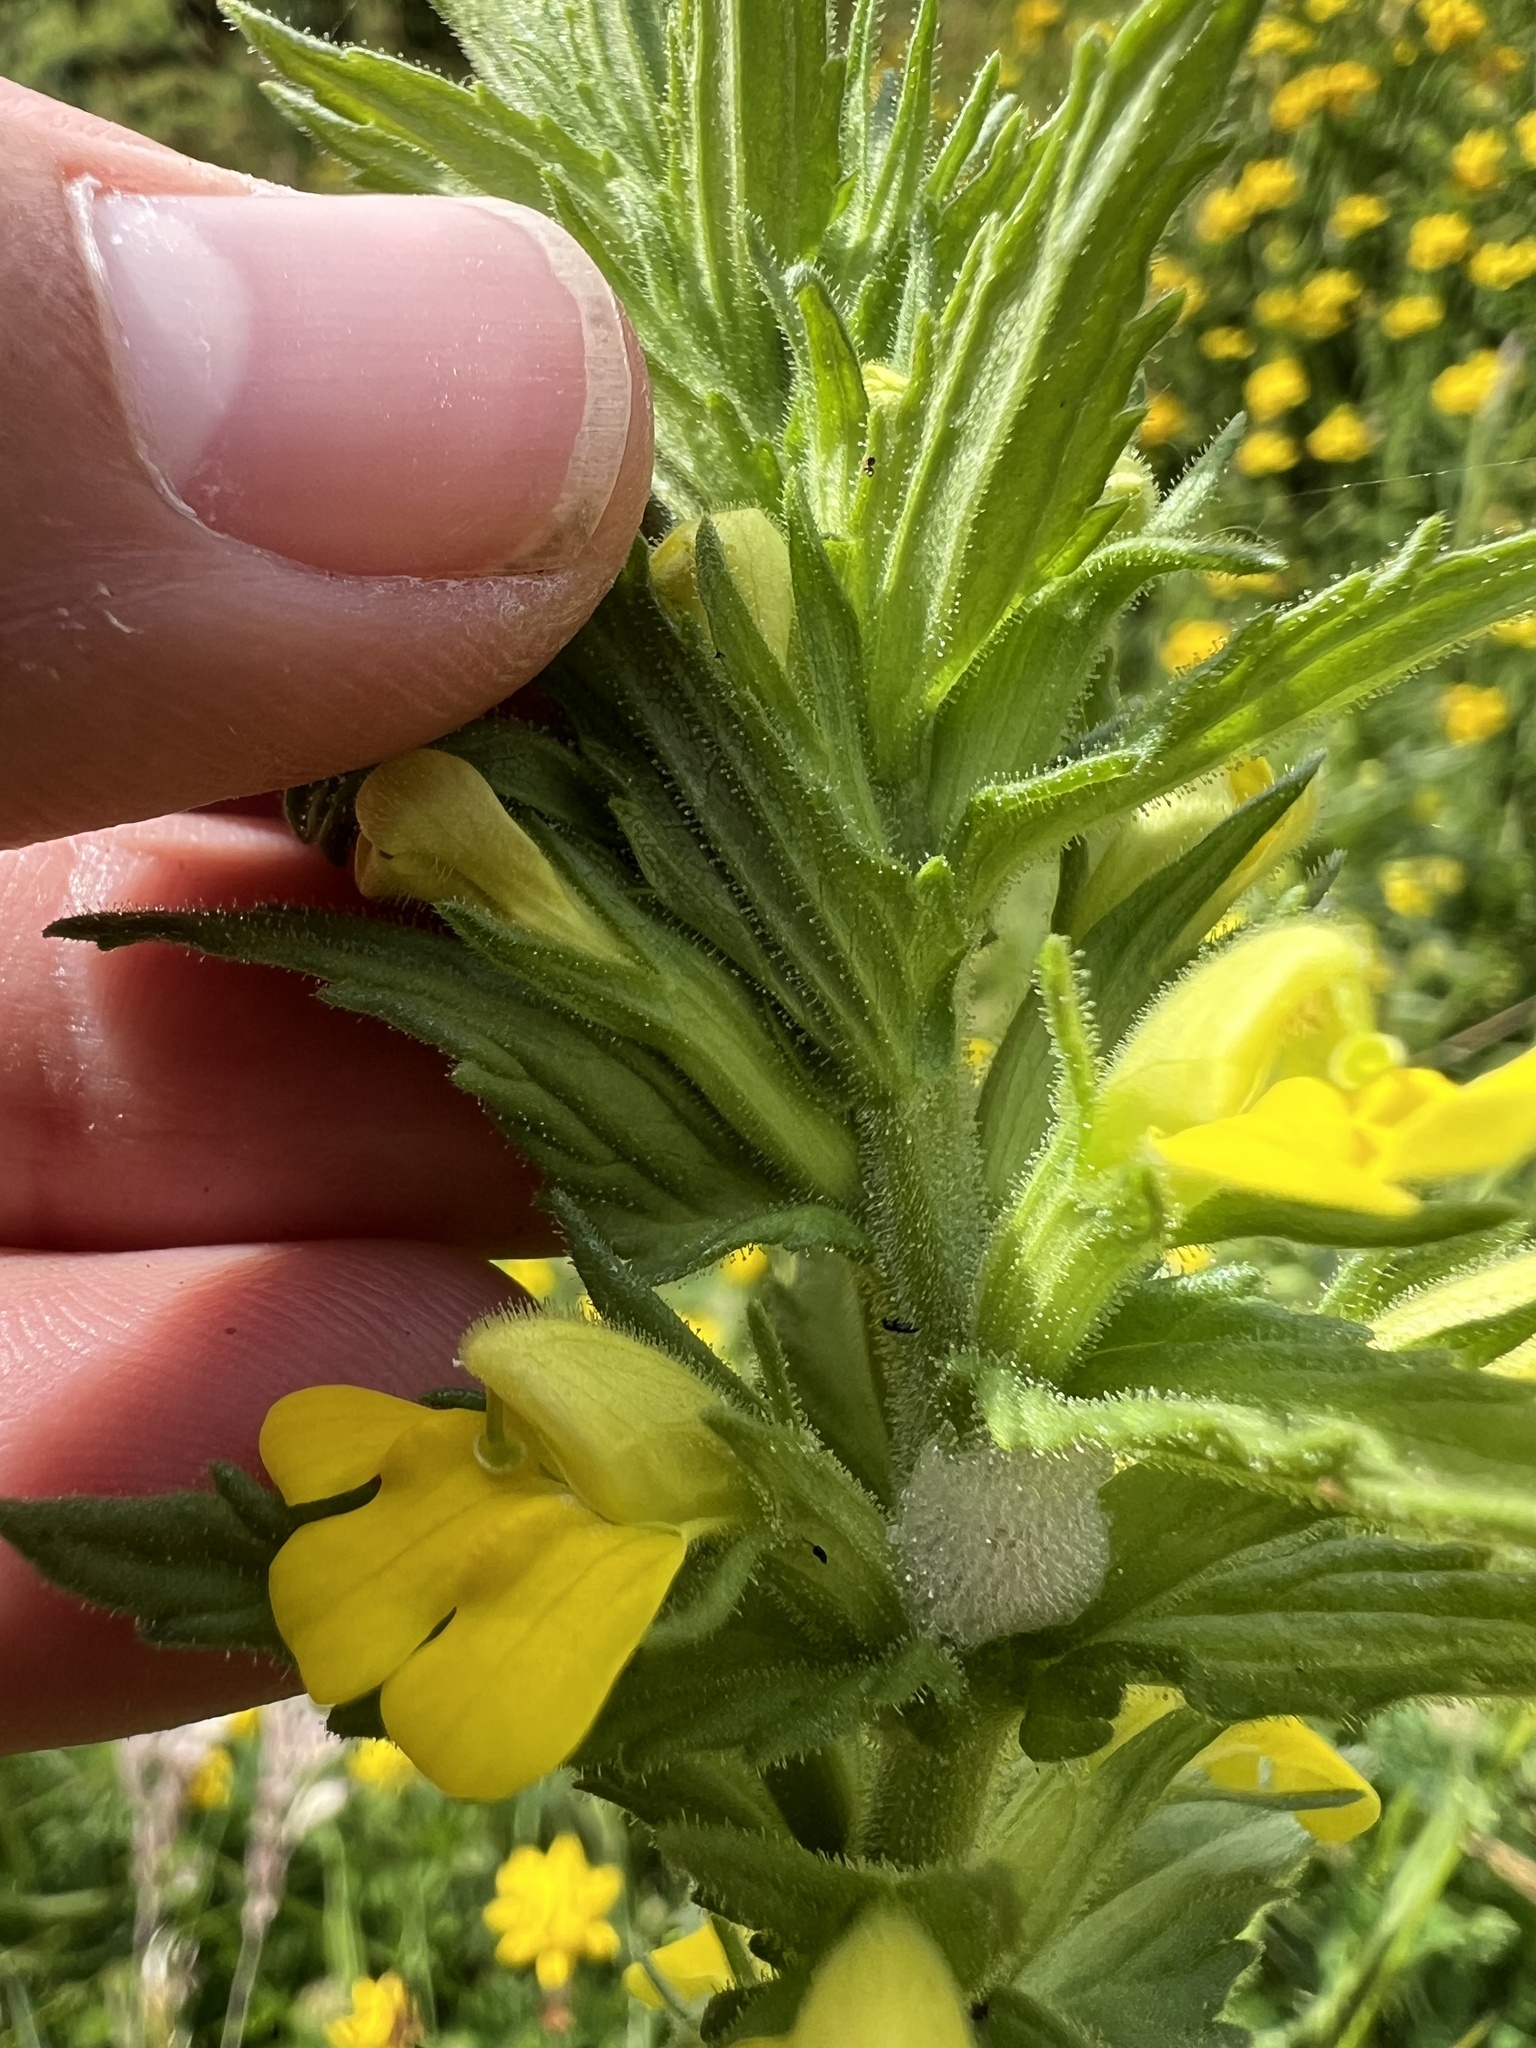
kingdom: Plantae
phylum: Tracheophyta
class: Magnoliopsida
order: Lamiales
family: Orobanchaceae
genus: Bellardia
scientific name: Bellardia viscosa
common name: Sticky parentucellia
